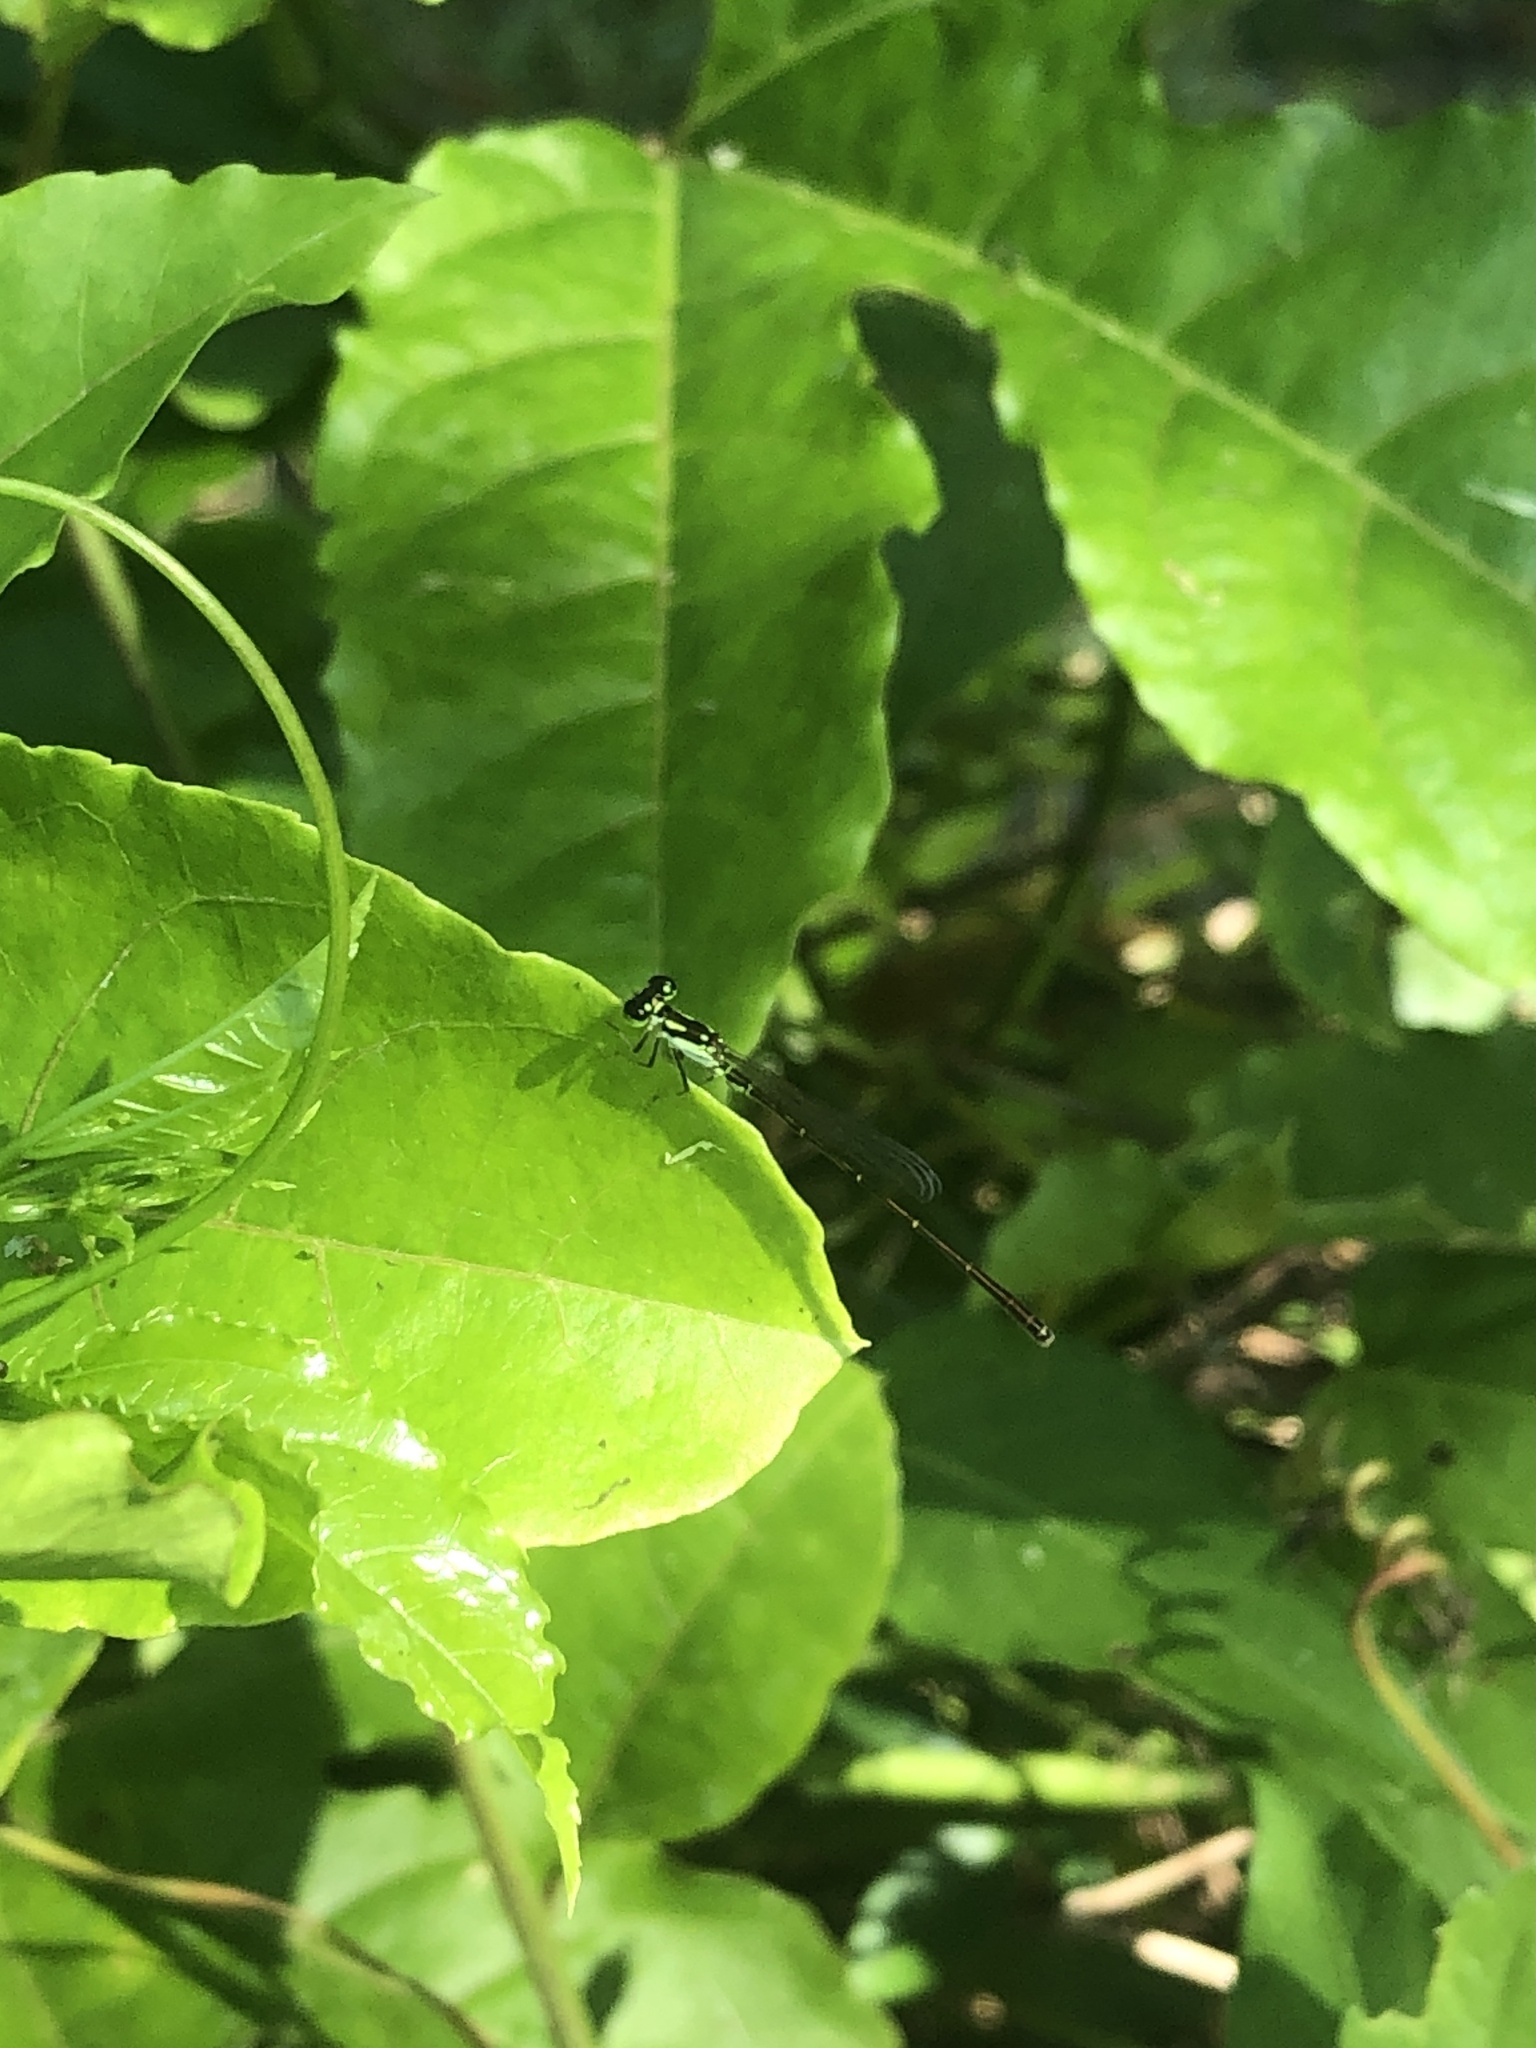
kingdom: Animalia
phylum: Arthropoda
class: Insecta
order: Odonata
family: Coenagrionidae
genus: Ischnura
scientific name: Ischnura posita
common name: Fragile forktail
